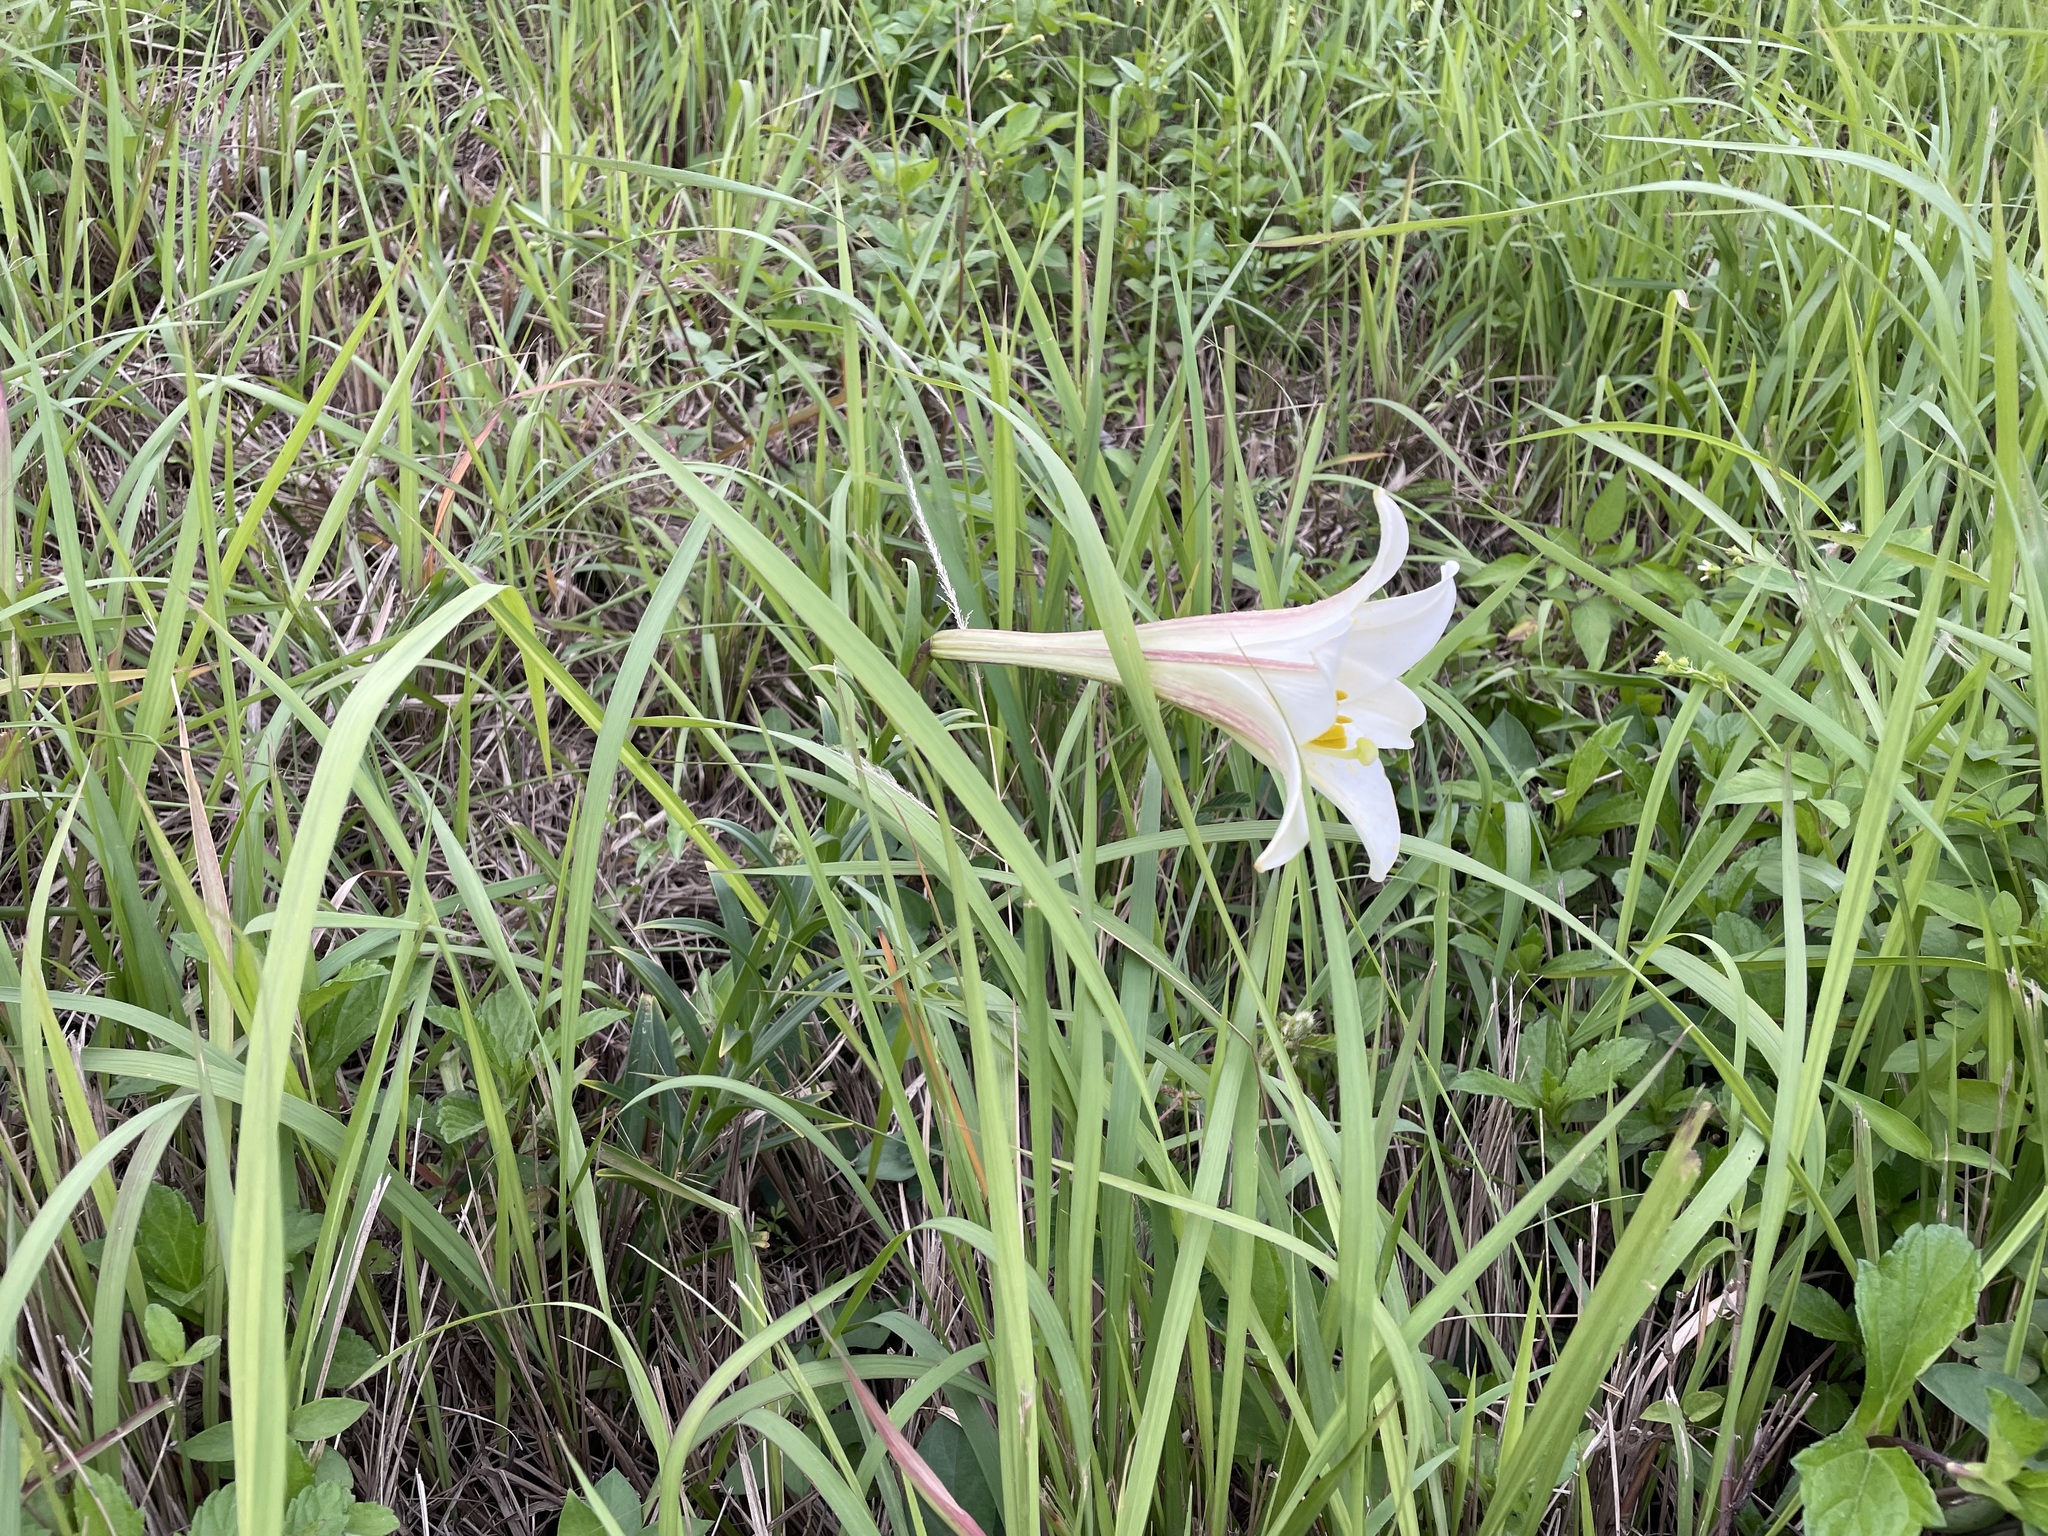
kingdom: Plantae
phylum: Tracheophyta
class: Liliopsida
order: Liliales
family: Liliaceae
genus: Lilium
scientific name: Lilium longiflorum
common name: Easter lily
